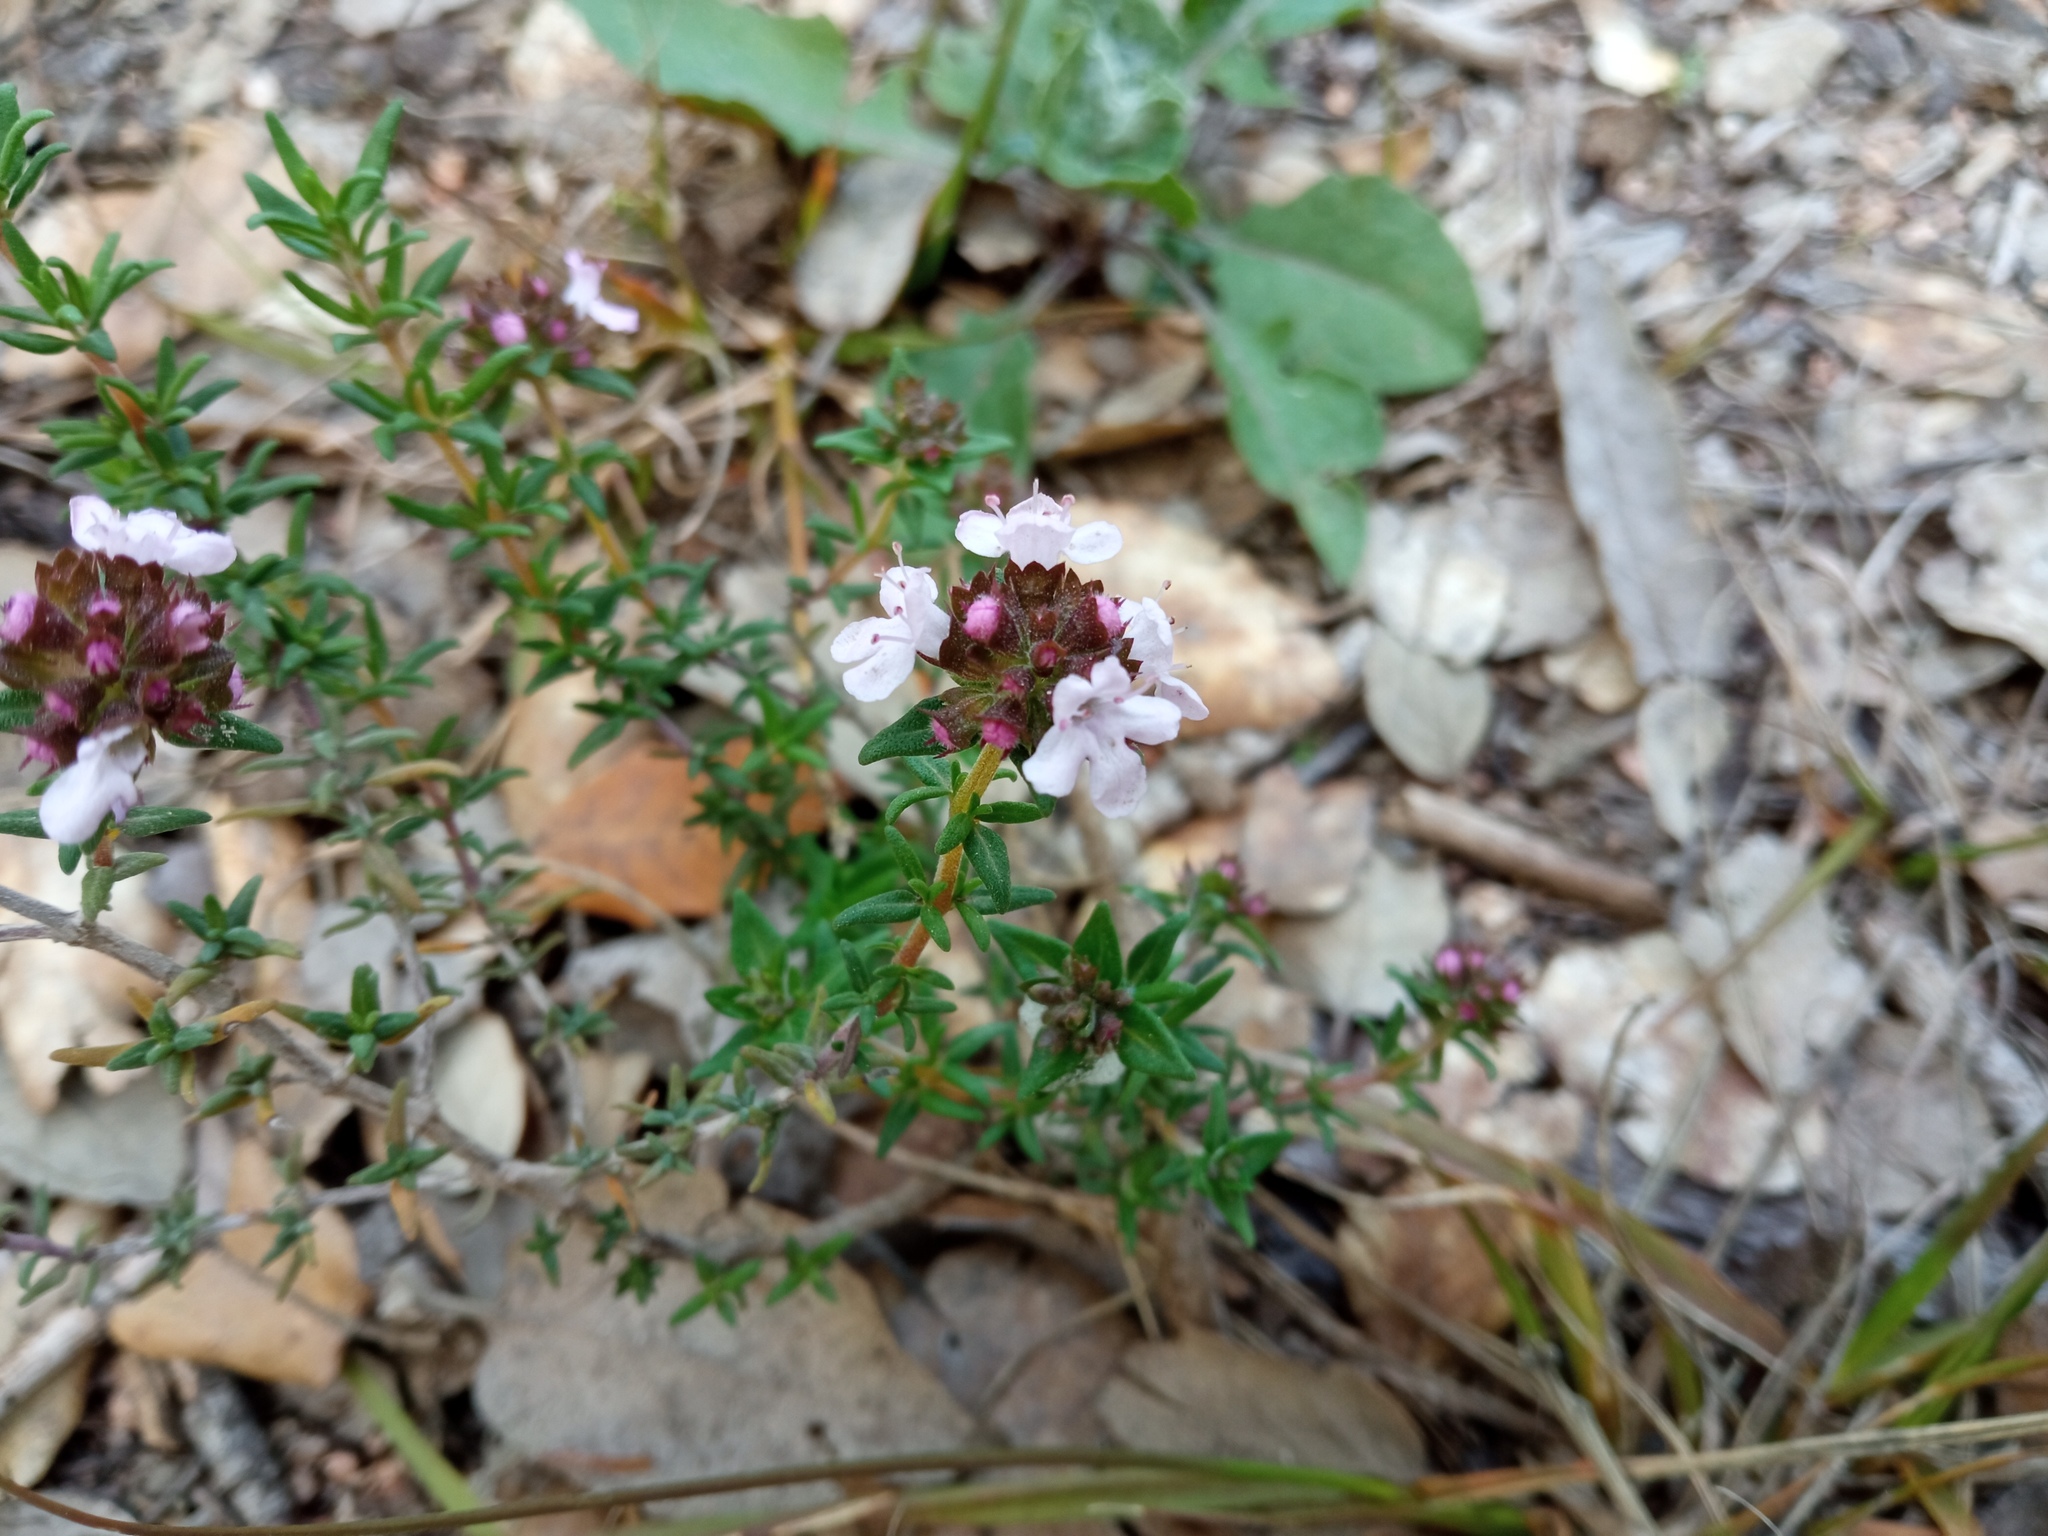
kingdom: Plantae
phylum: Tracheophyta
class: Magnoliopsida
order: Lamiales
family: Lamiaceae
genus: Thymus
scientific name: Thymus vulgaris
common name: Garden thyme
